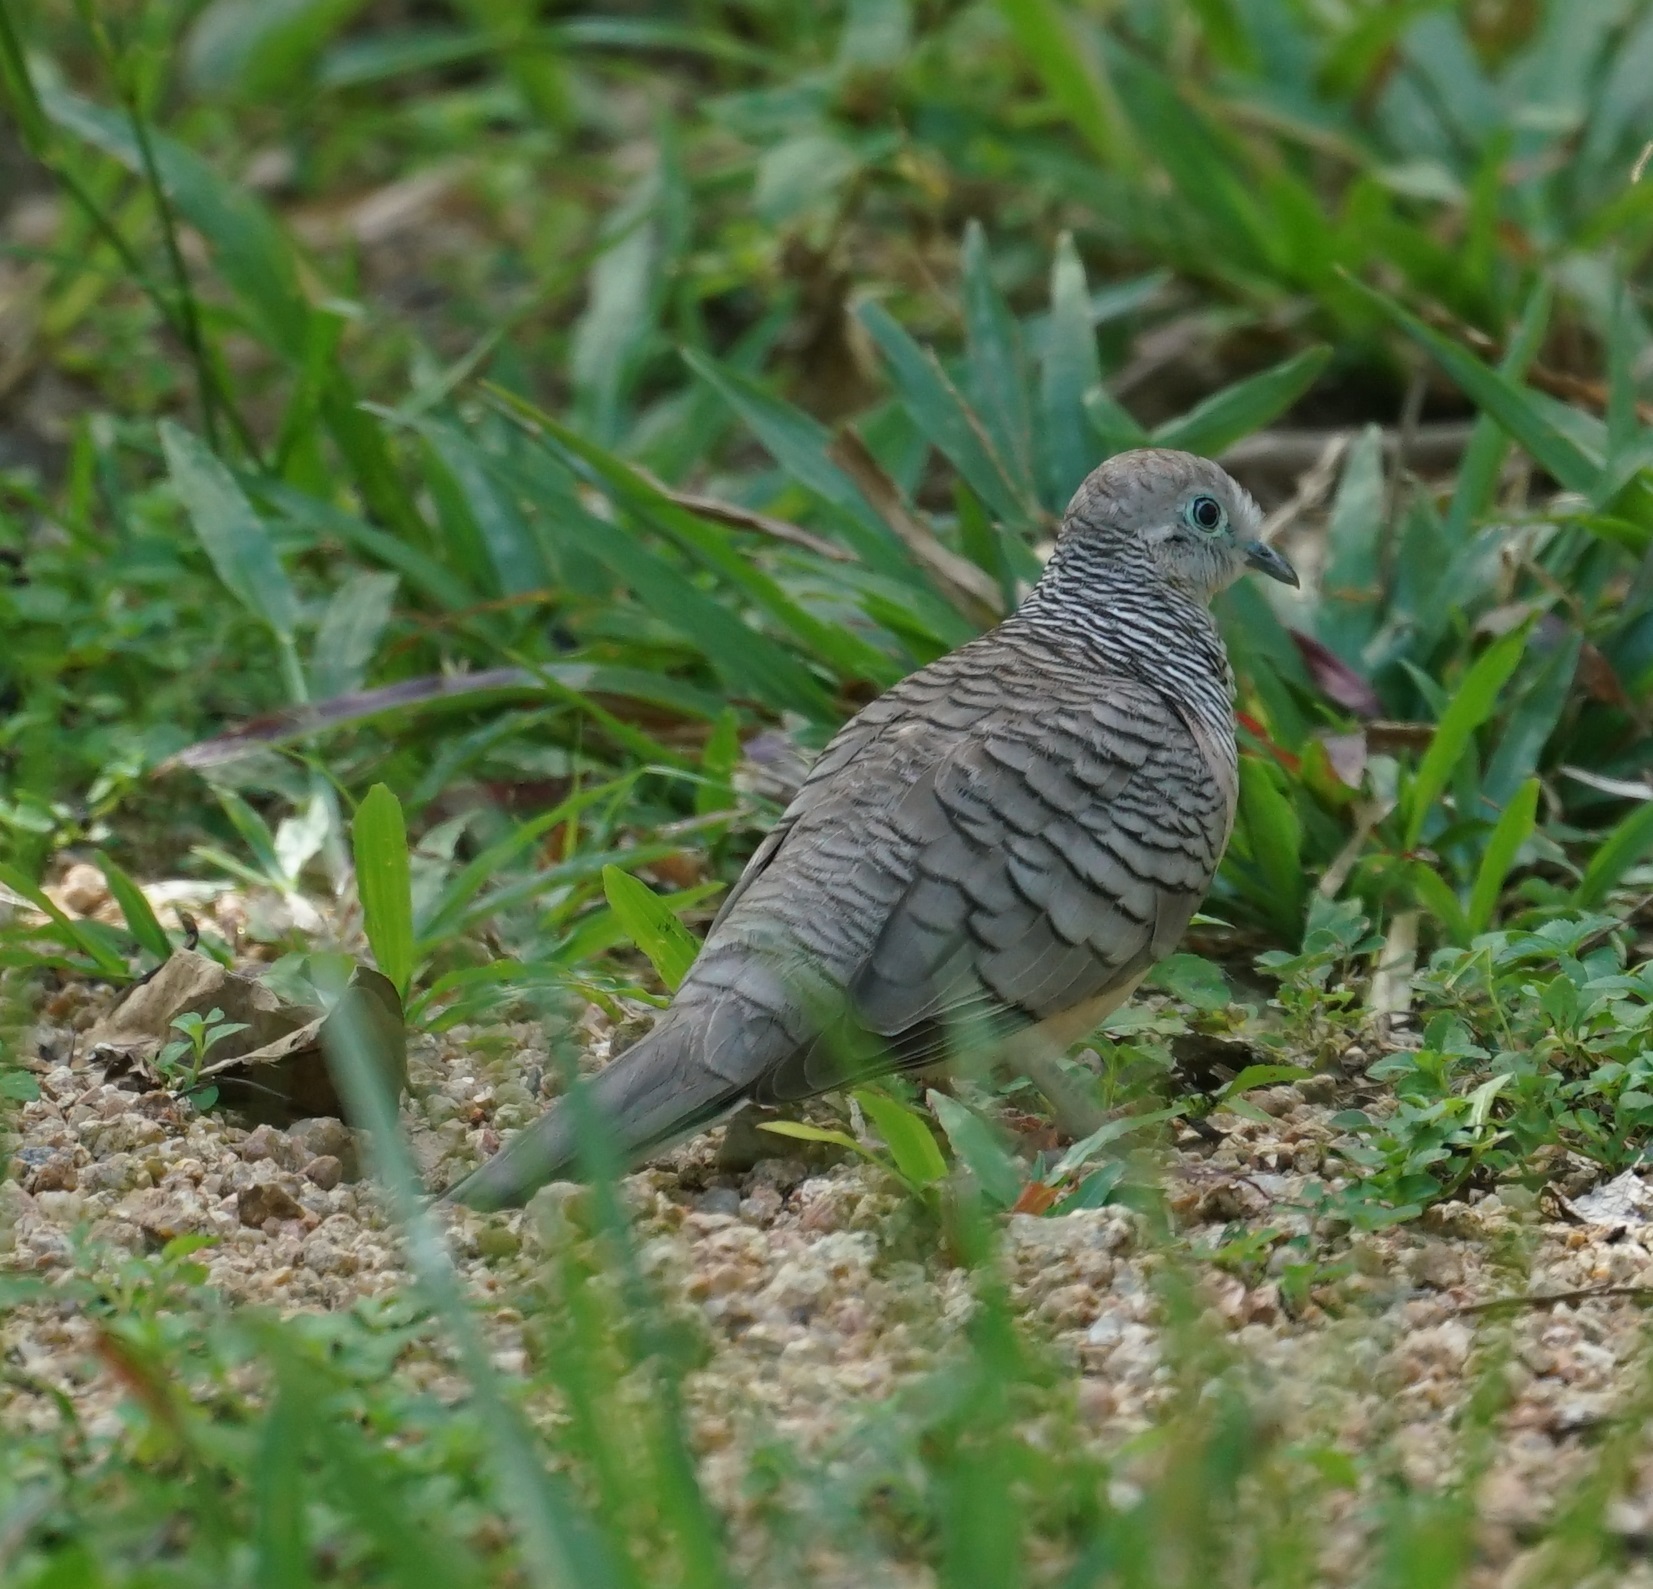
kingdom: Animalia
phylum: Chordata
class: Aves
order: Columbiformes
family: Columbidae
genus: Geopelia
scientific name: Geopelia placida
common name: Peaceful dove
